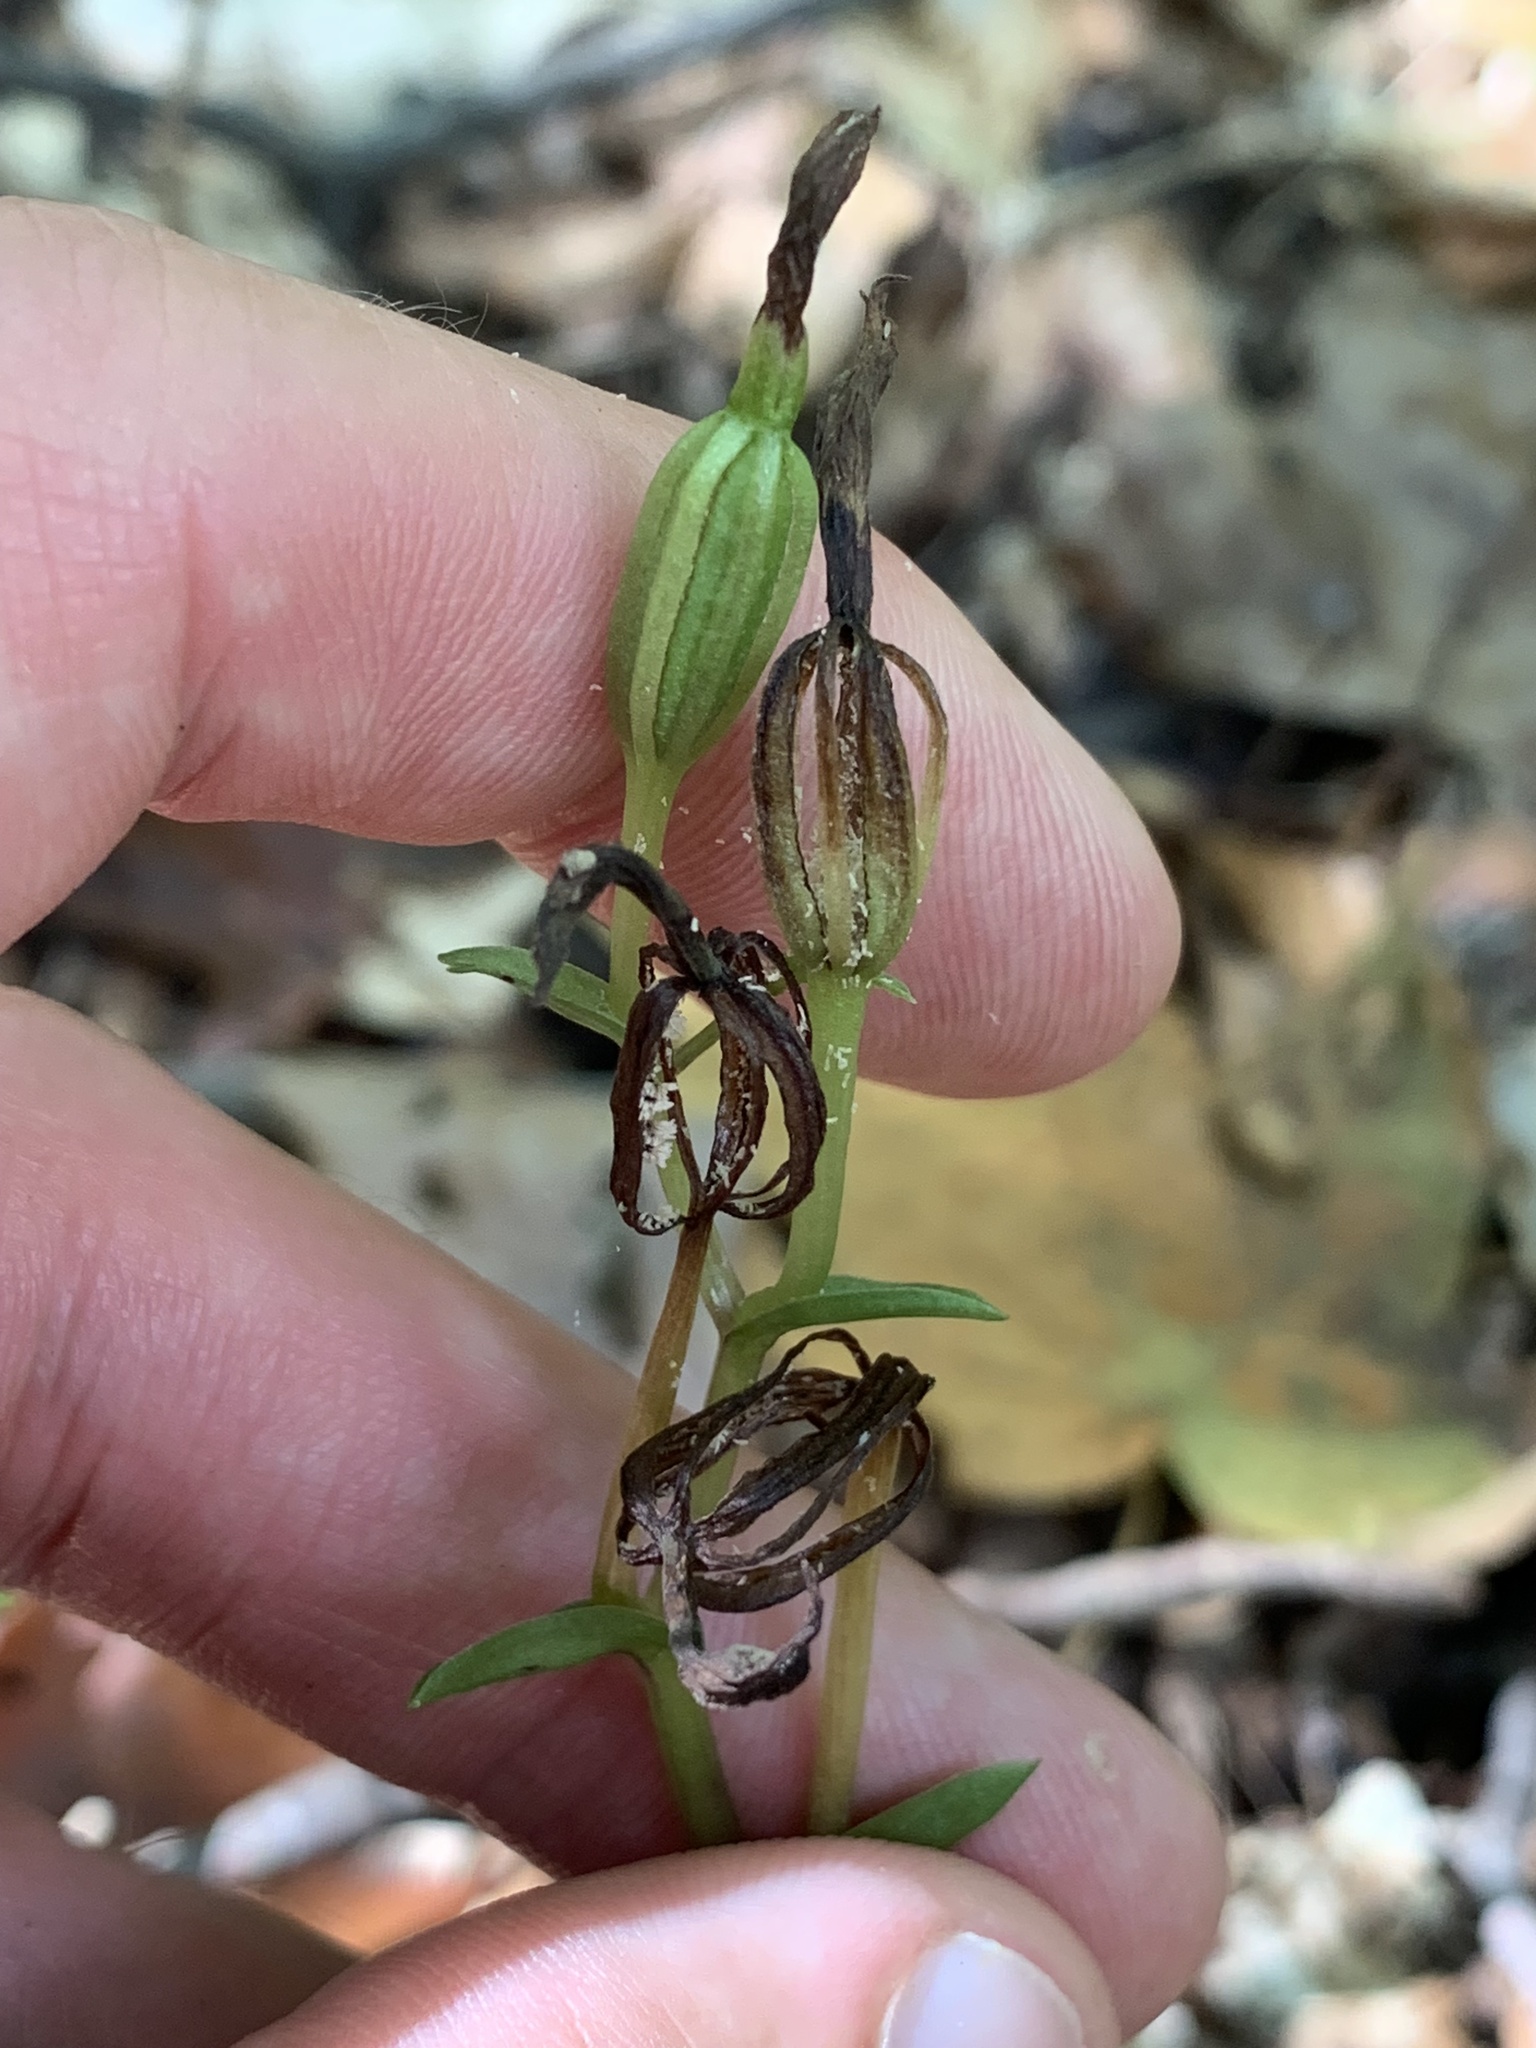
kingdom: Plantae
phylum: Tracheophyta
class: Liliopsida
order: Asparagales
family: Orchidaceae
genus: Triphora
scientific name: Triphora trianthophoros
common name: Three birds orchid
